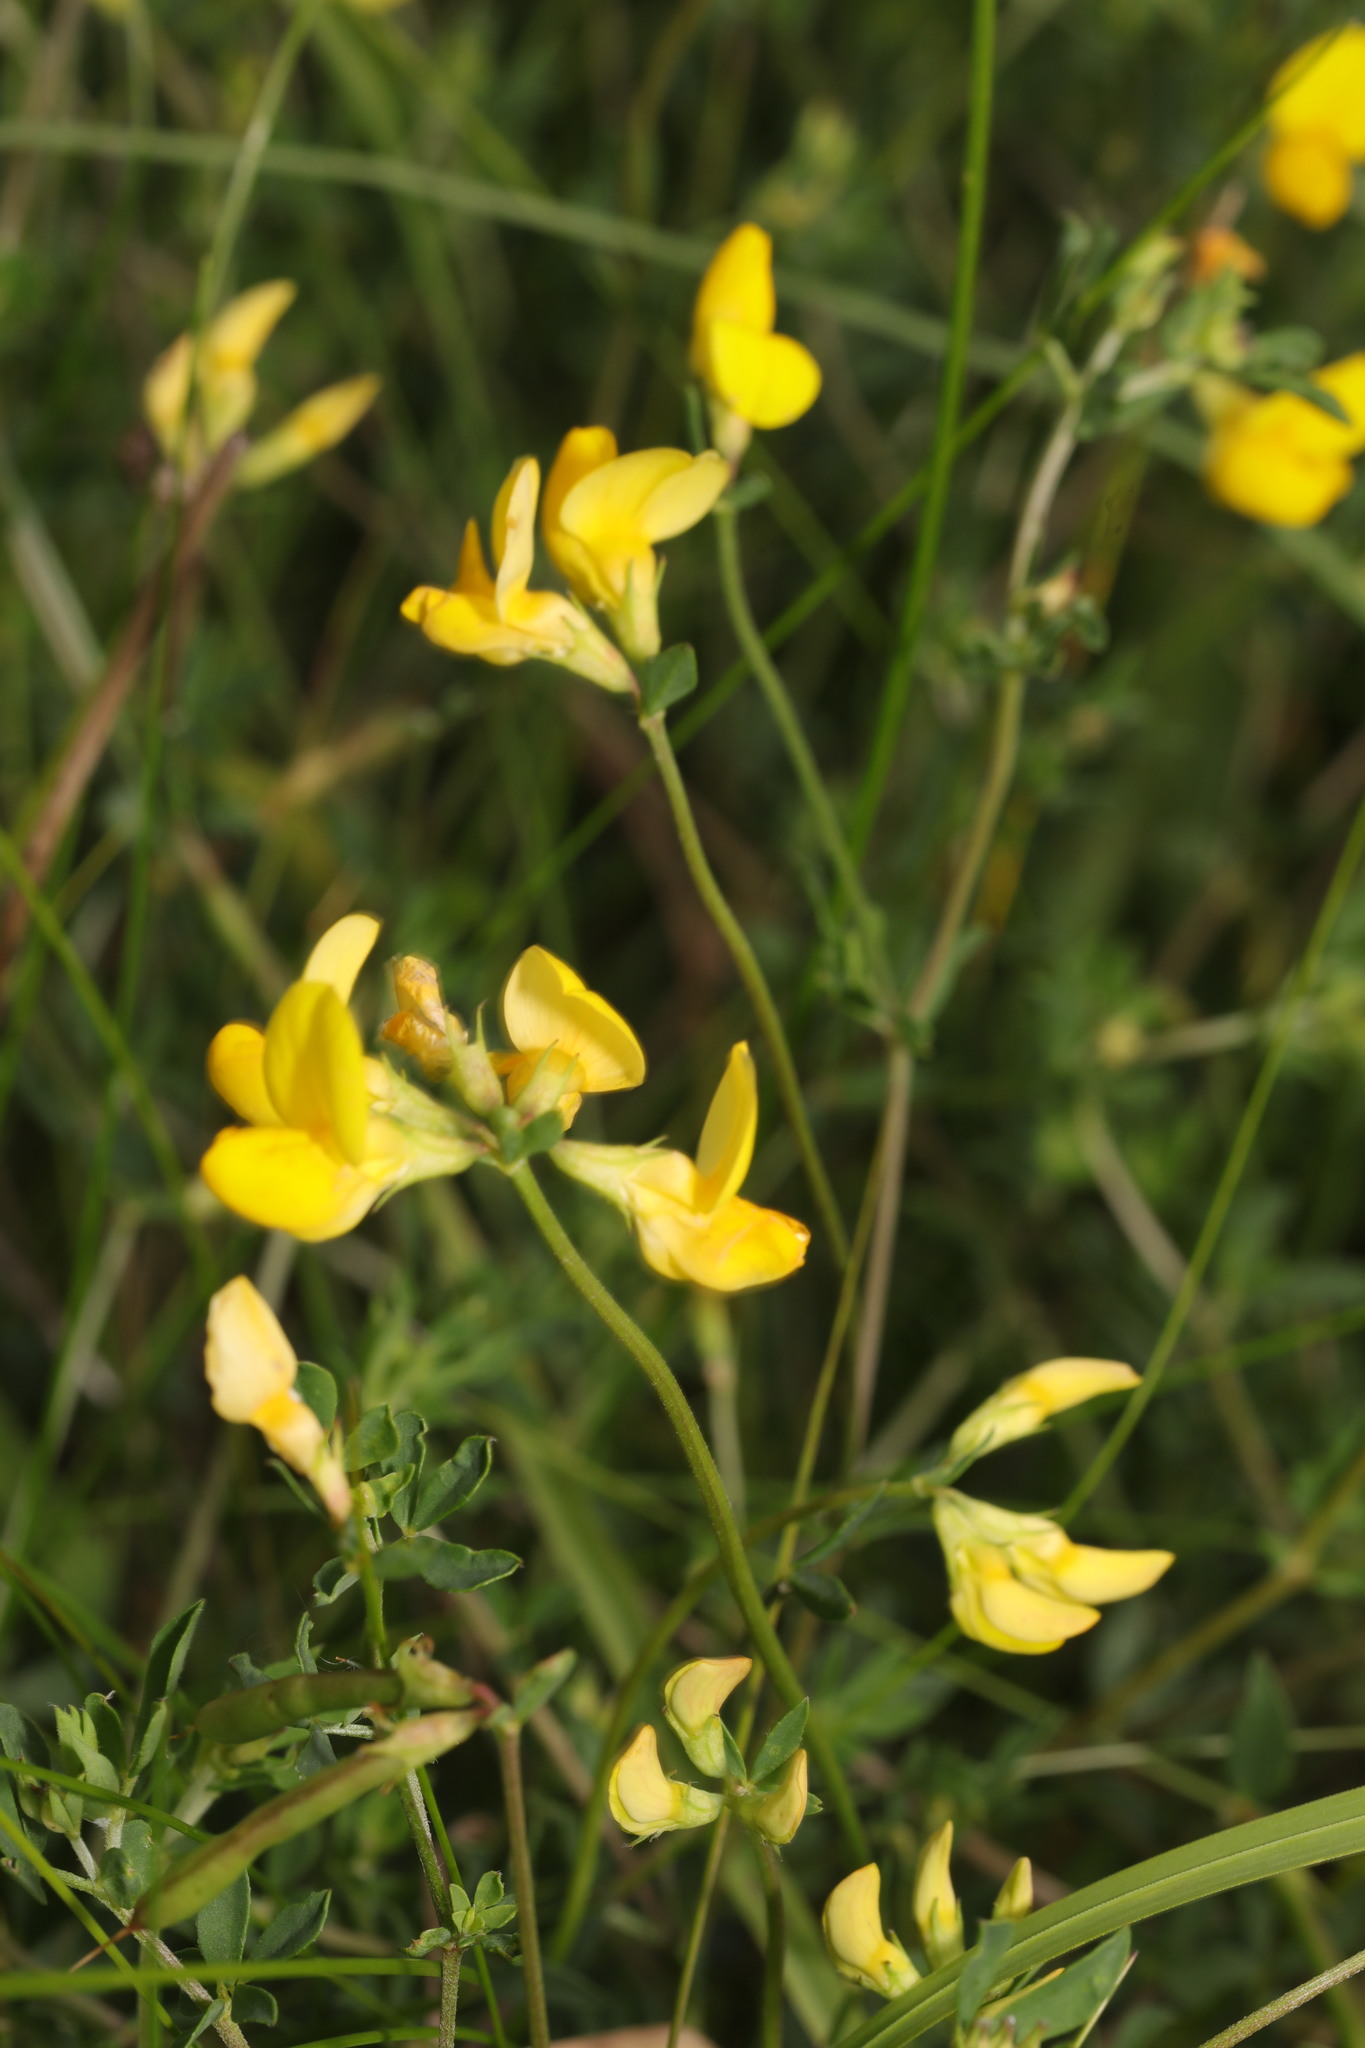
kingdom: Plantae
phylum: Tracheophyta
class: Magnoliopsida
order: Fabales
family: Fabaceae
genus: Lotus
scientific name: Lotus corniculatus
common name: Common bird's-foot-trefoil
